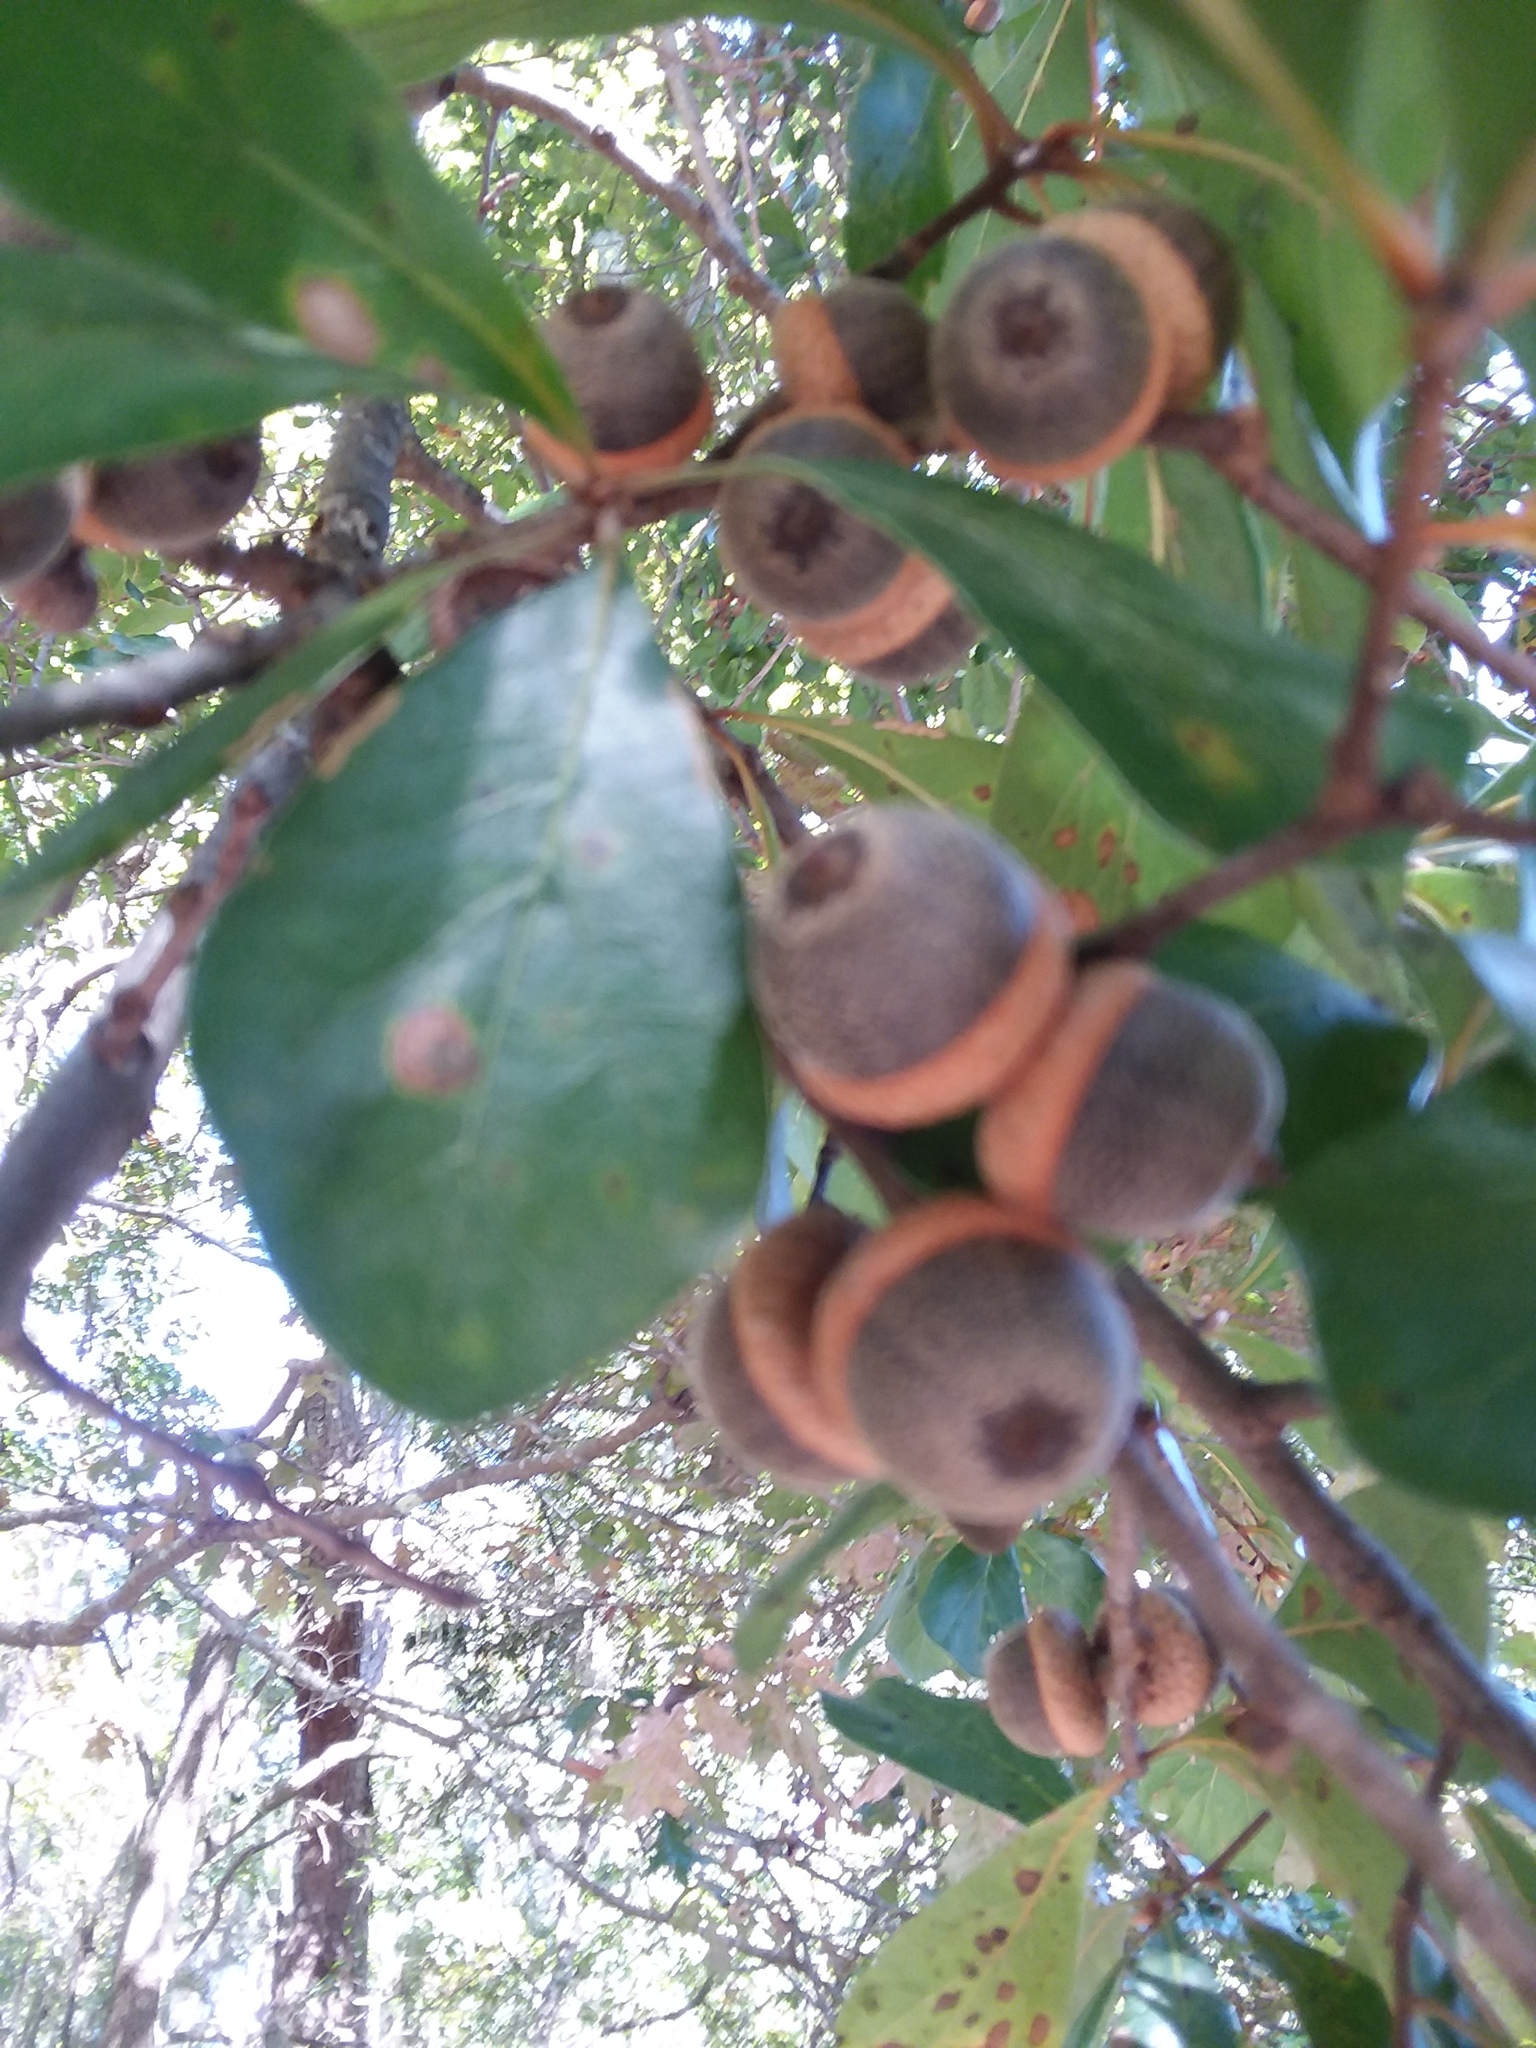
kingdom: Plantae
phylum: Tracheophyta
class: Magnoliopsida
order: Fagales
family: Fagaceae
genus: Quercus
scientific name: Quercus nigra
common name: Water oak
